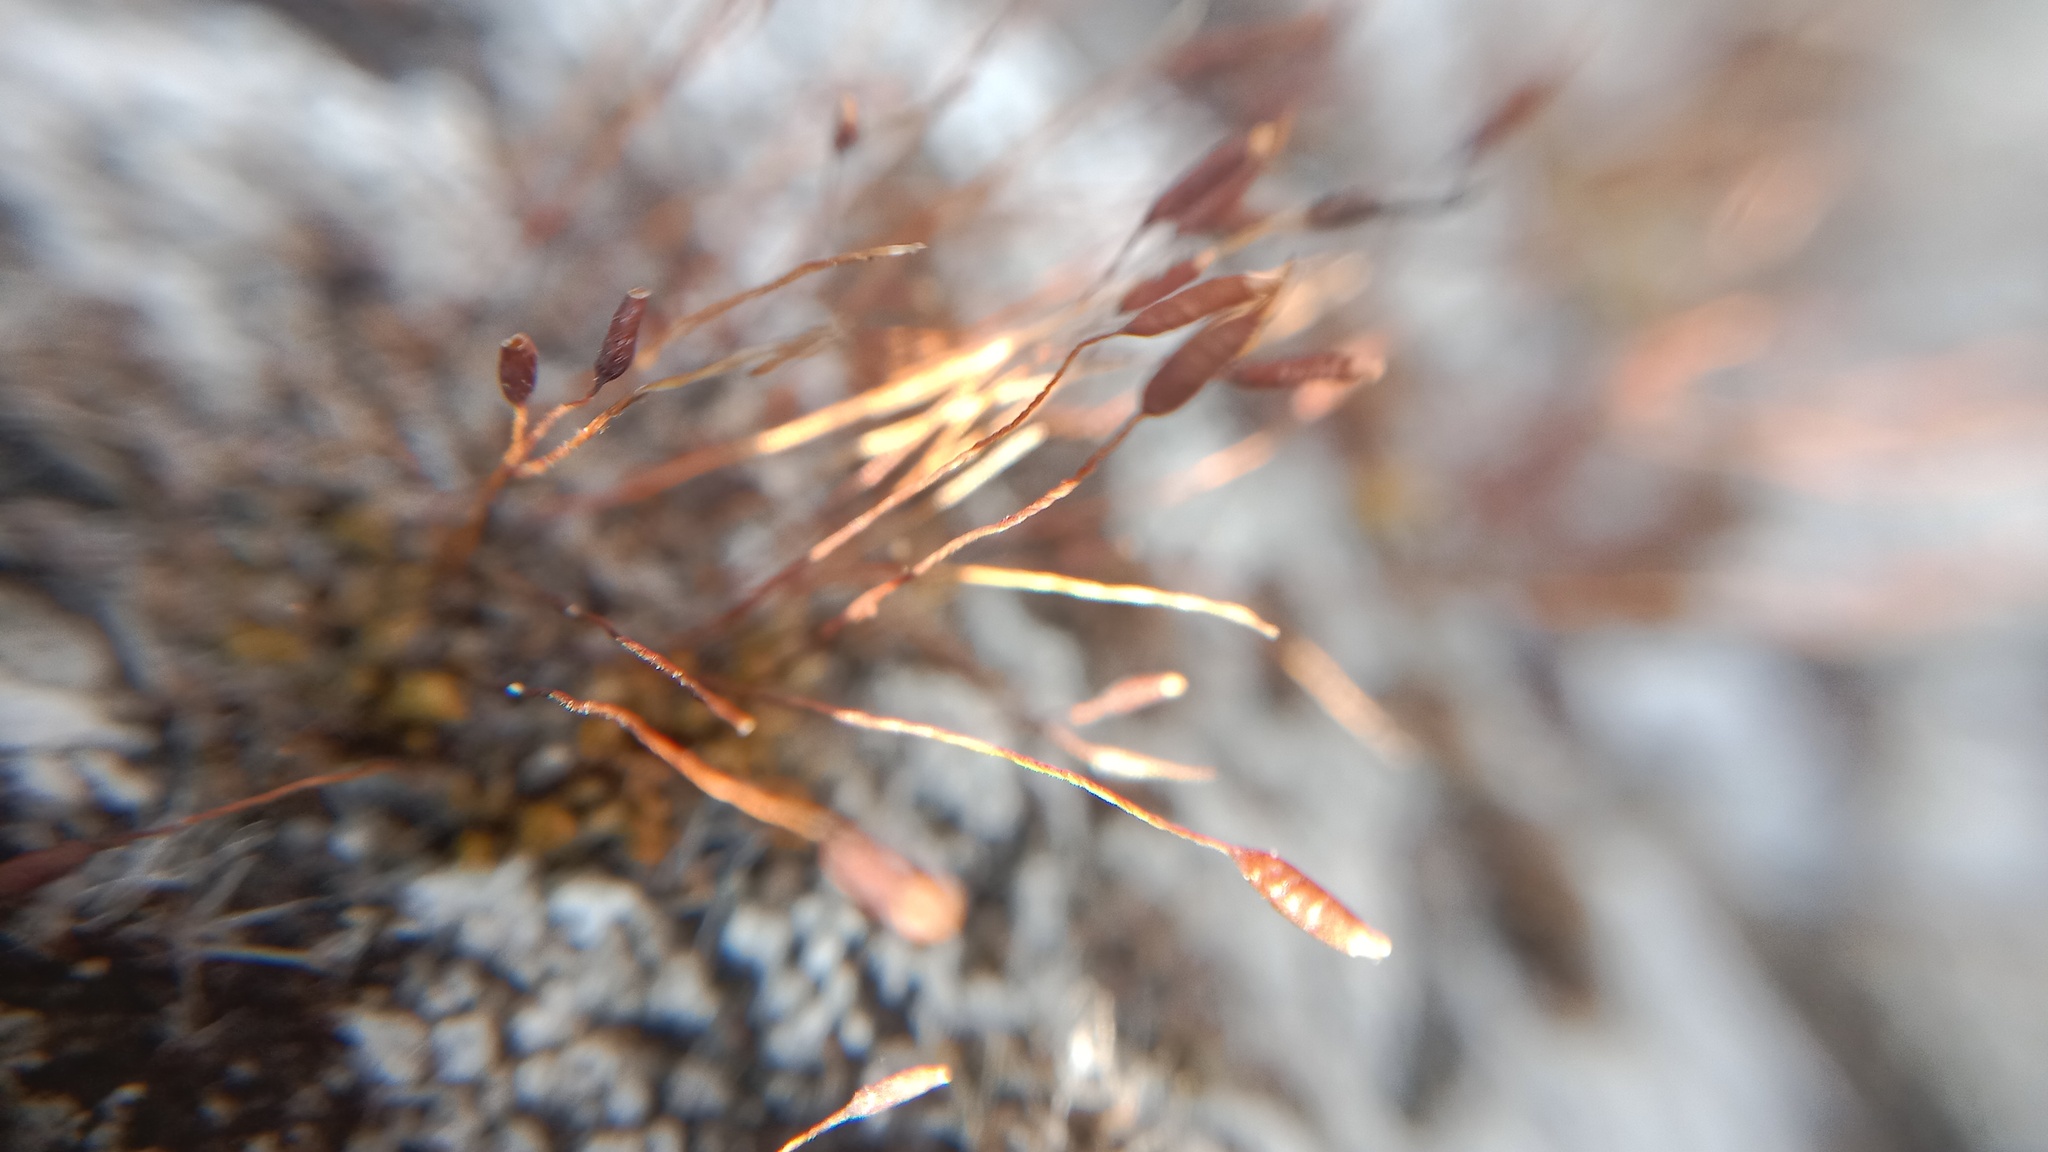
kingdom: Plantae
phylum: Bryophyta
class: Bryopsida
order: Pottiales
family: Pottiaceae
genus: Tortula
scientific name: Tortula muralis
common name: Wall screw-moss
